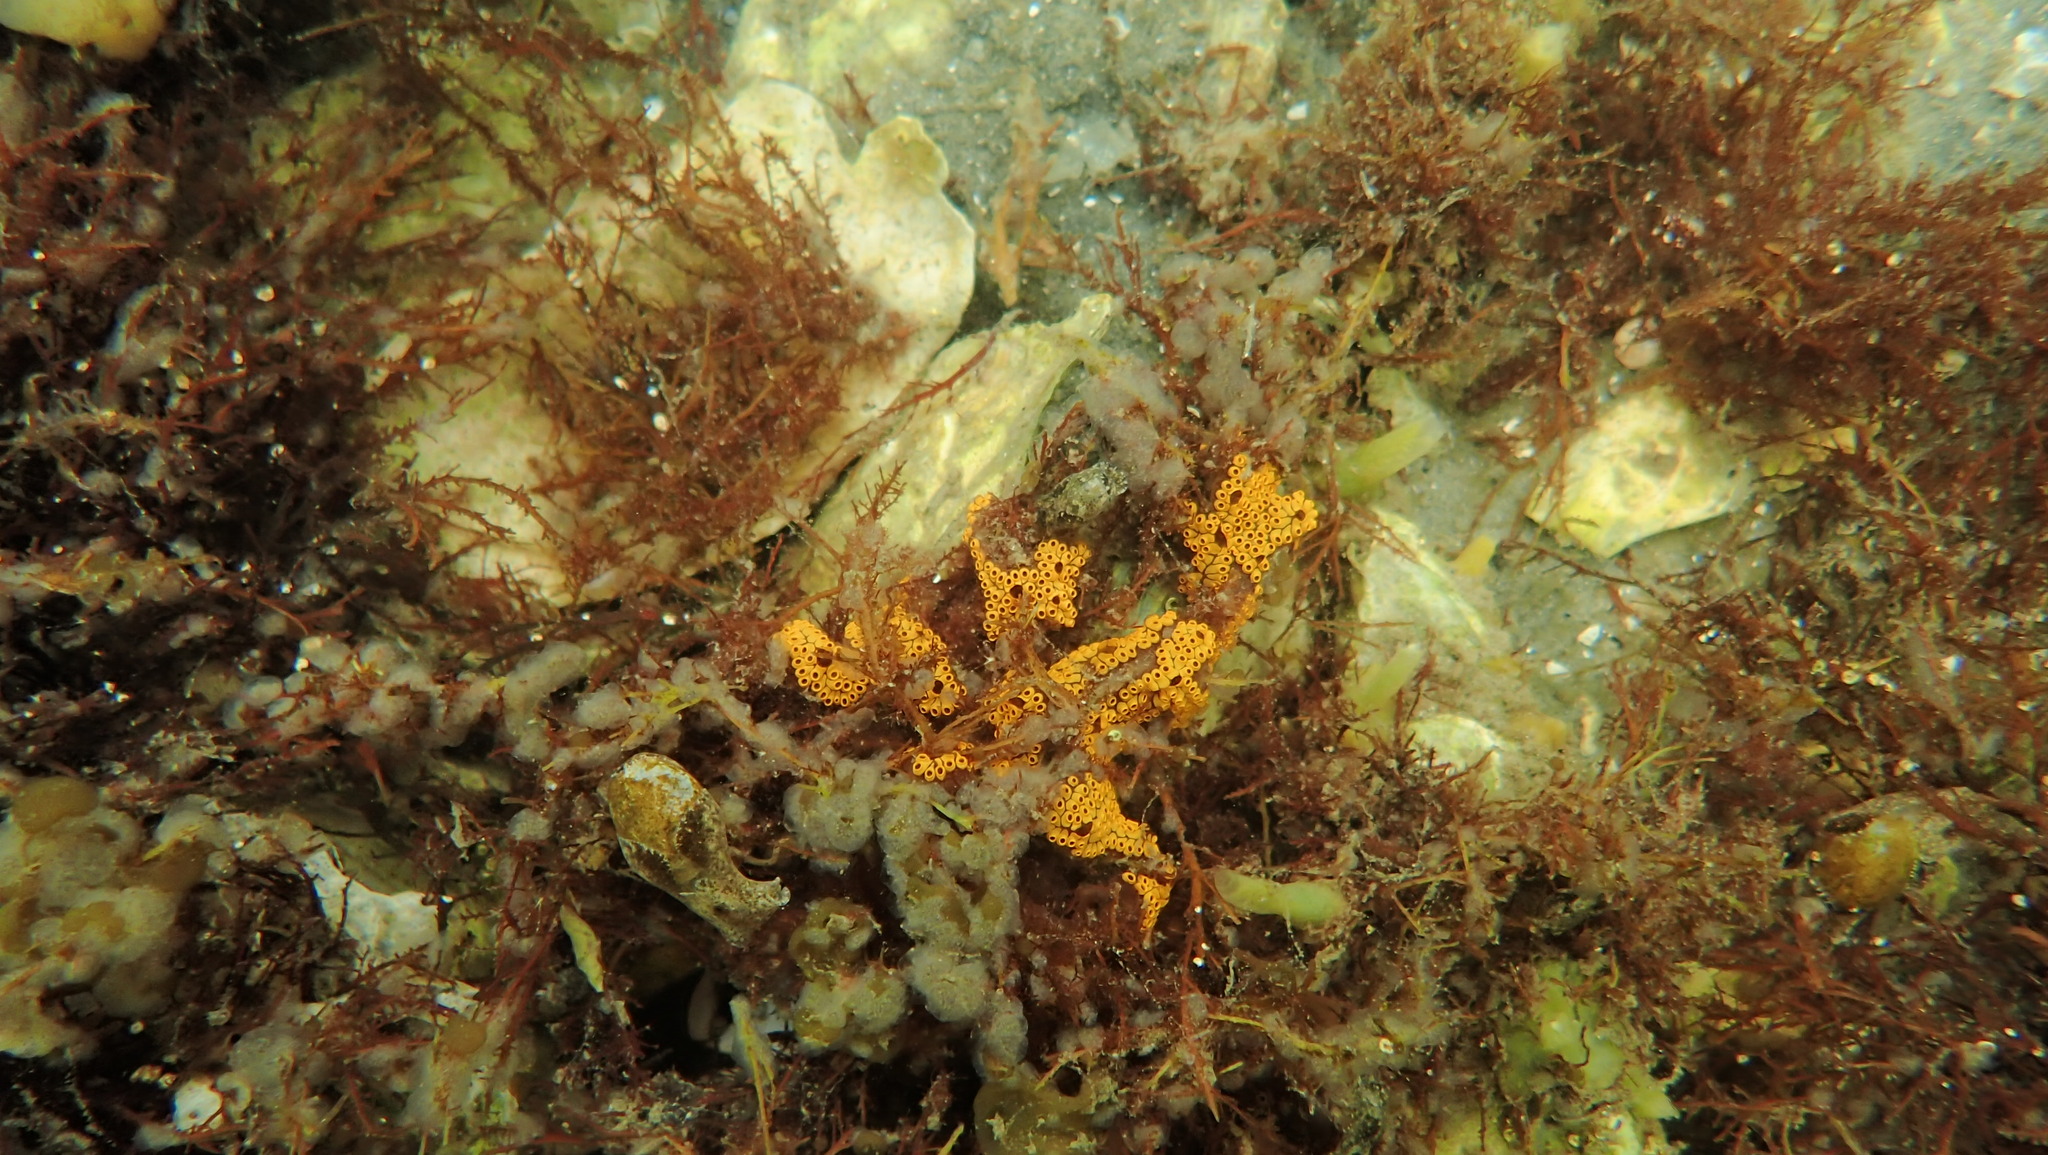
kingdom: Animalia
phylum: Chordata
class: Ascidiacea
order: Stolidobranchia
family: Styelidae
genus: Botrylloides
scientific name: Botrylloides diegensis
